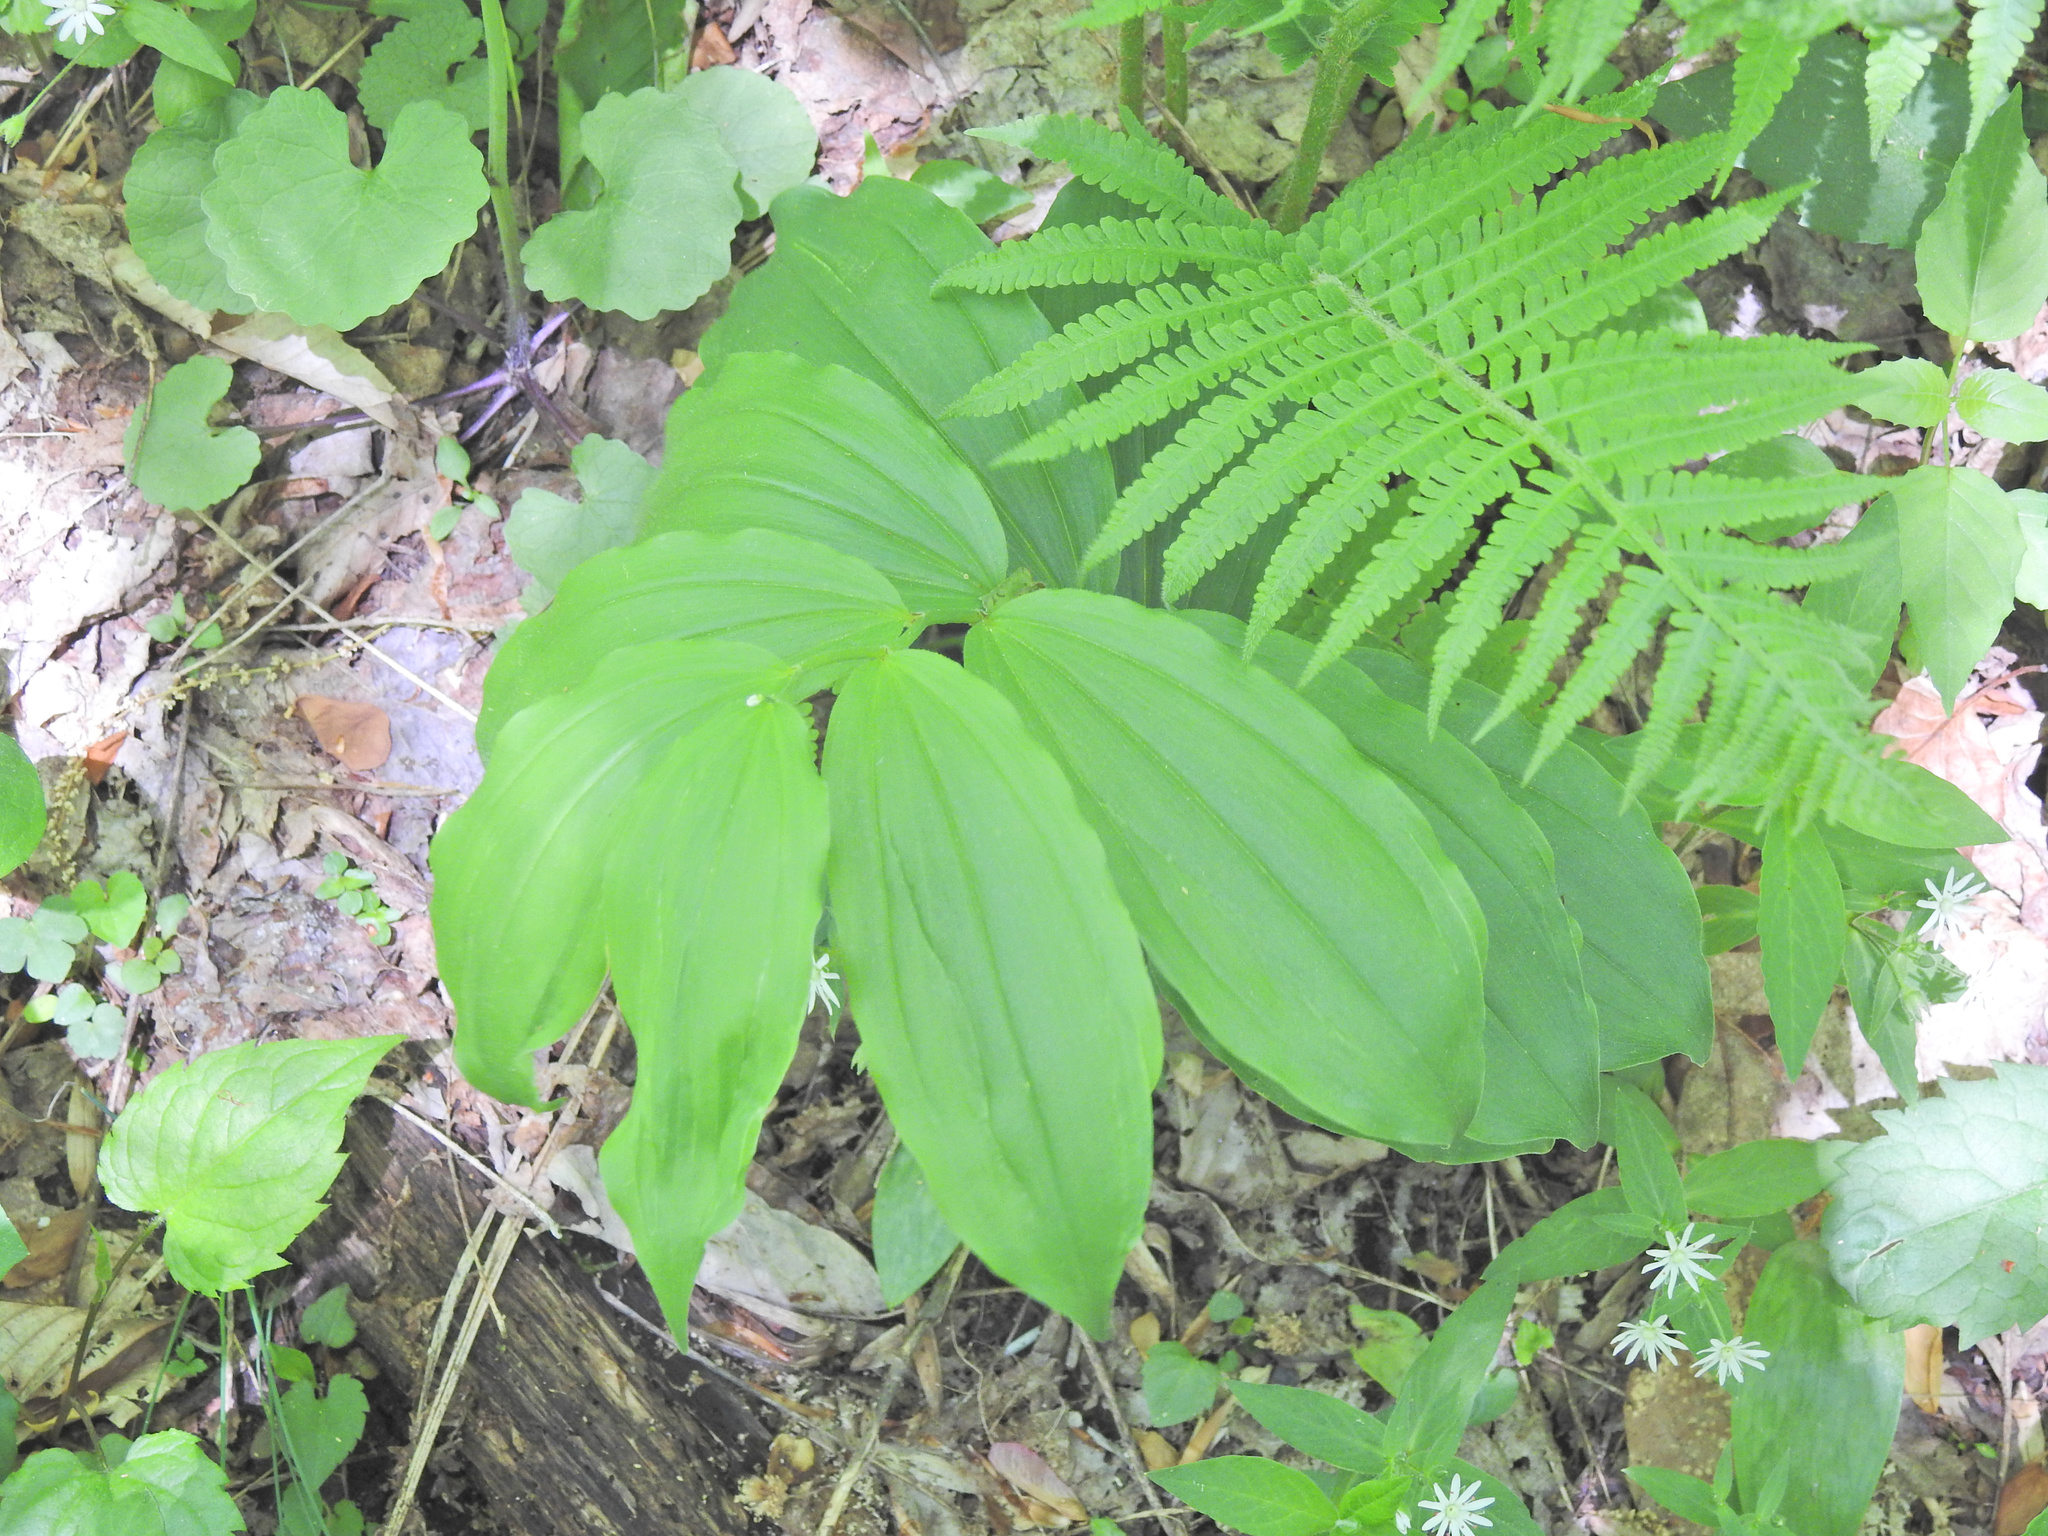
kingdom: Plantae
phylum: Tracheophyta
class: Liliopsida
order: Asparagales
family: Asparagaceae
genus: Maianthemum
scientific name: Maianthemum racemosum
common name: False spikenard
